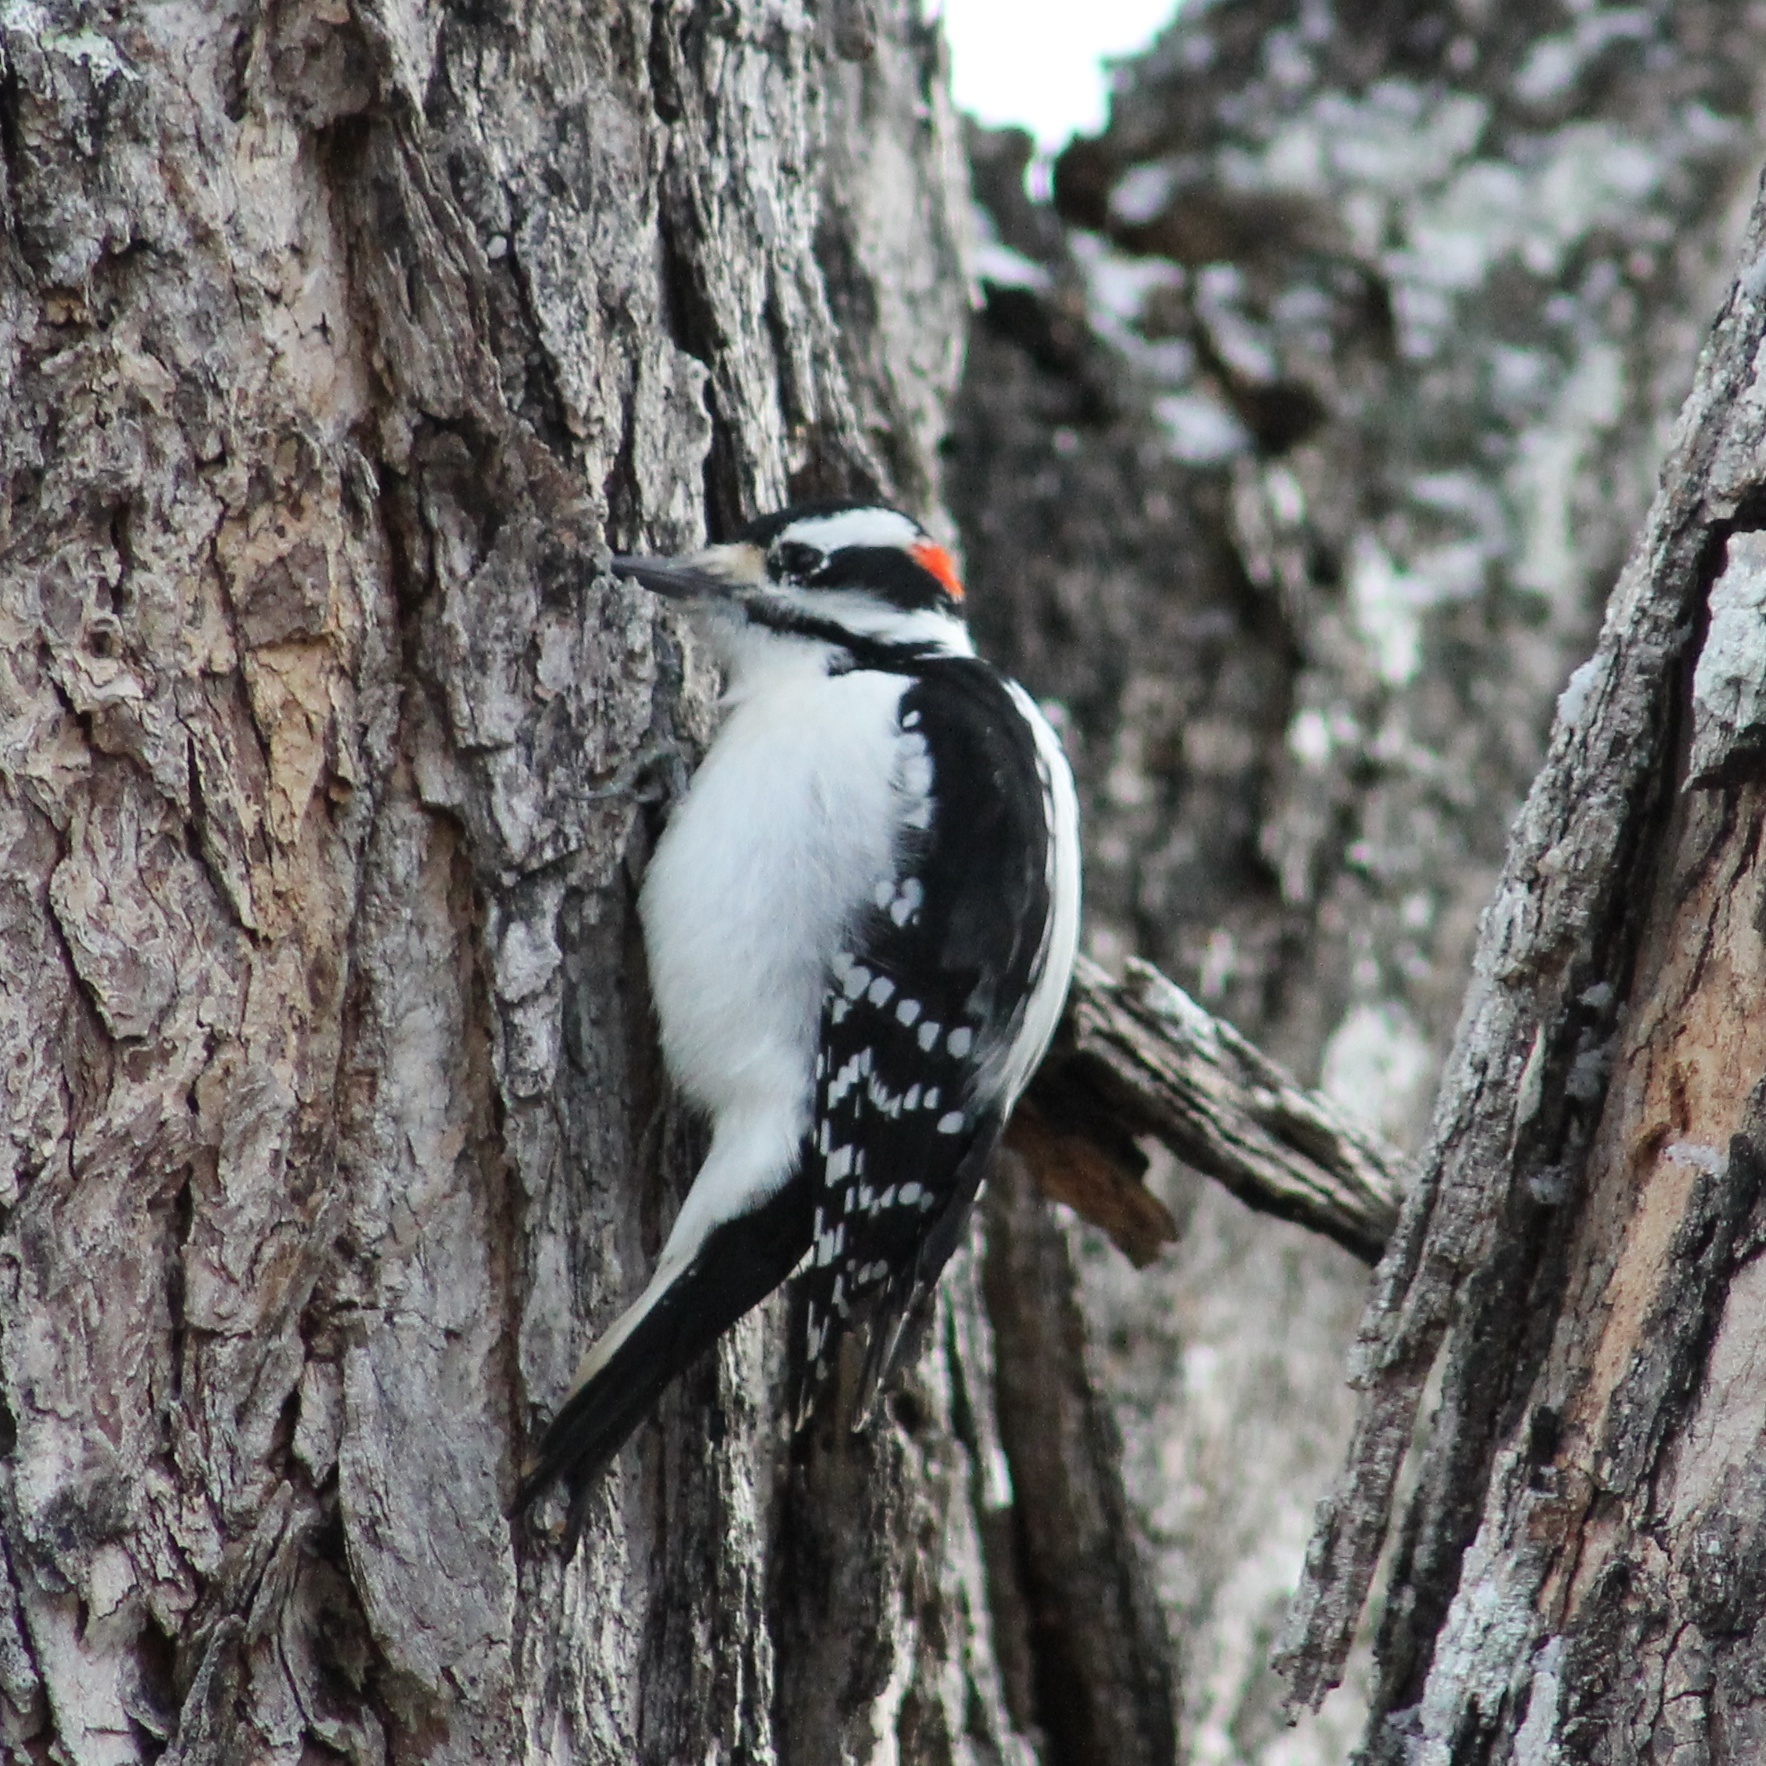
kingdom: Animalia
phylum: Chordata
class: Aves
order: Piciformes
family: Picidae
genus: Leuconotopicus
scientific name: Leuconotopicus villosus
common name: Hairy woodpecker
